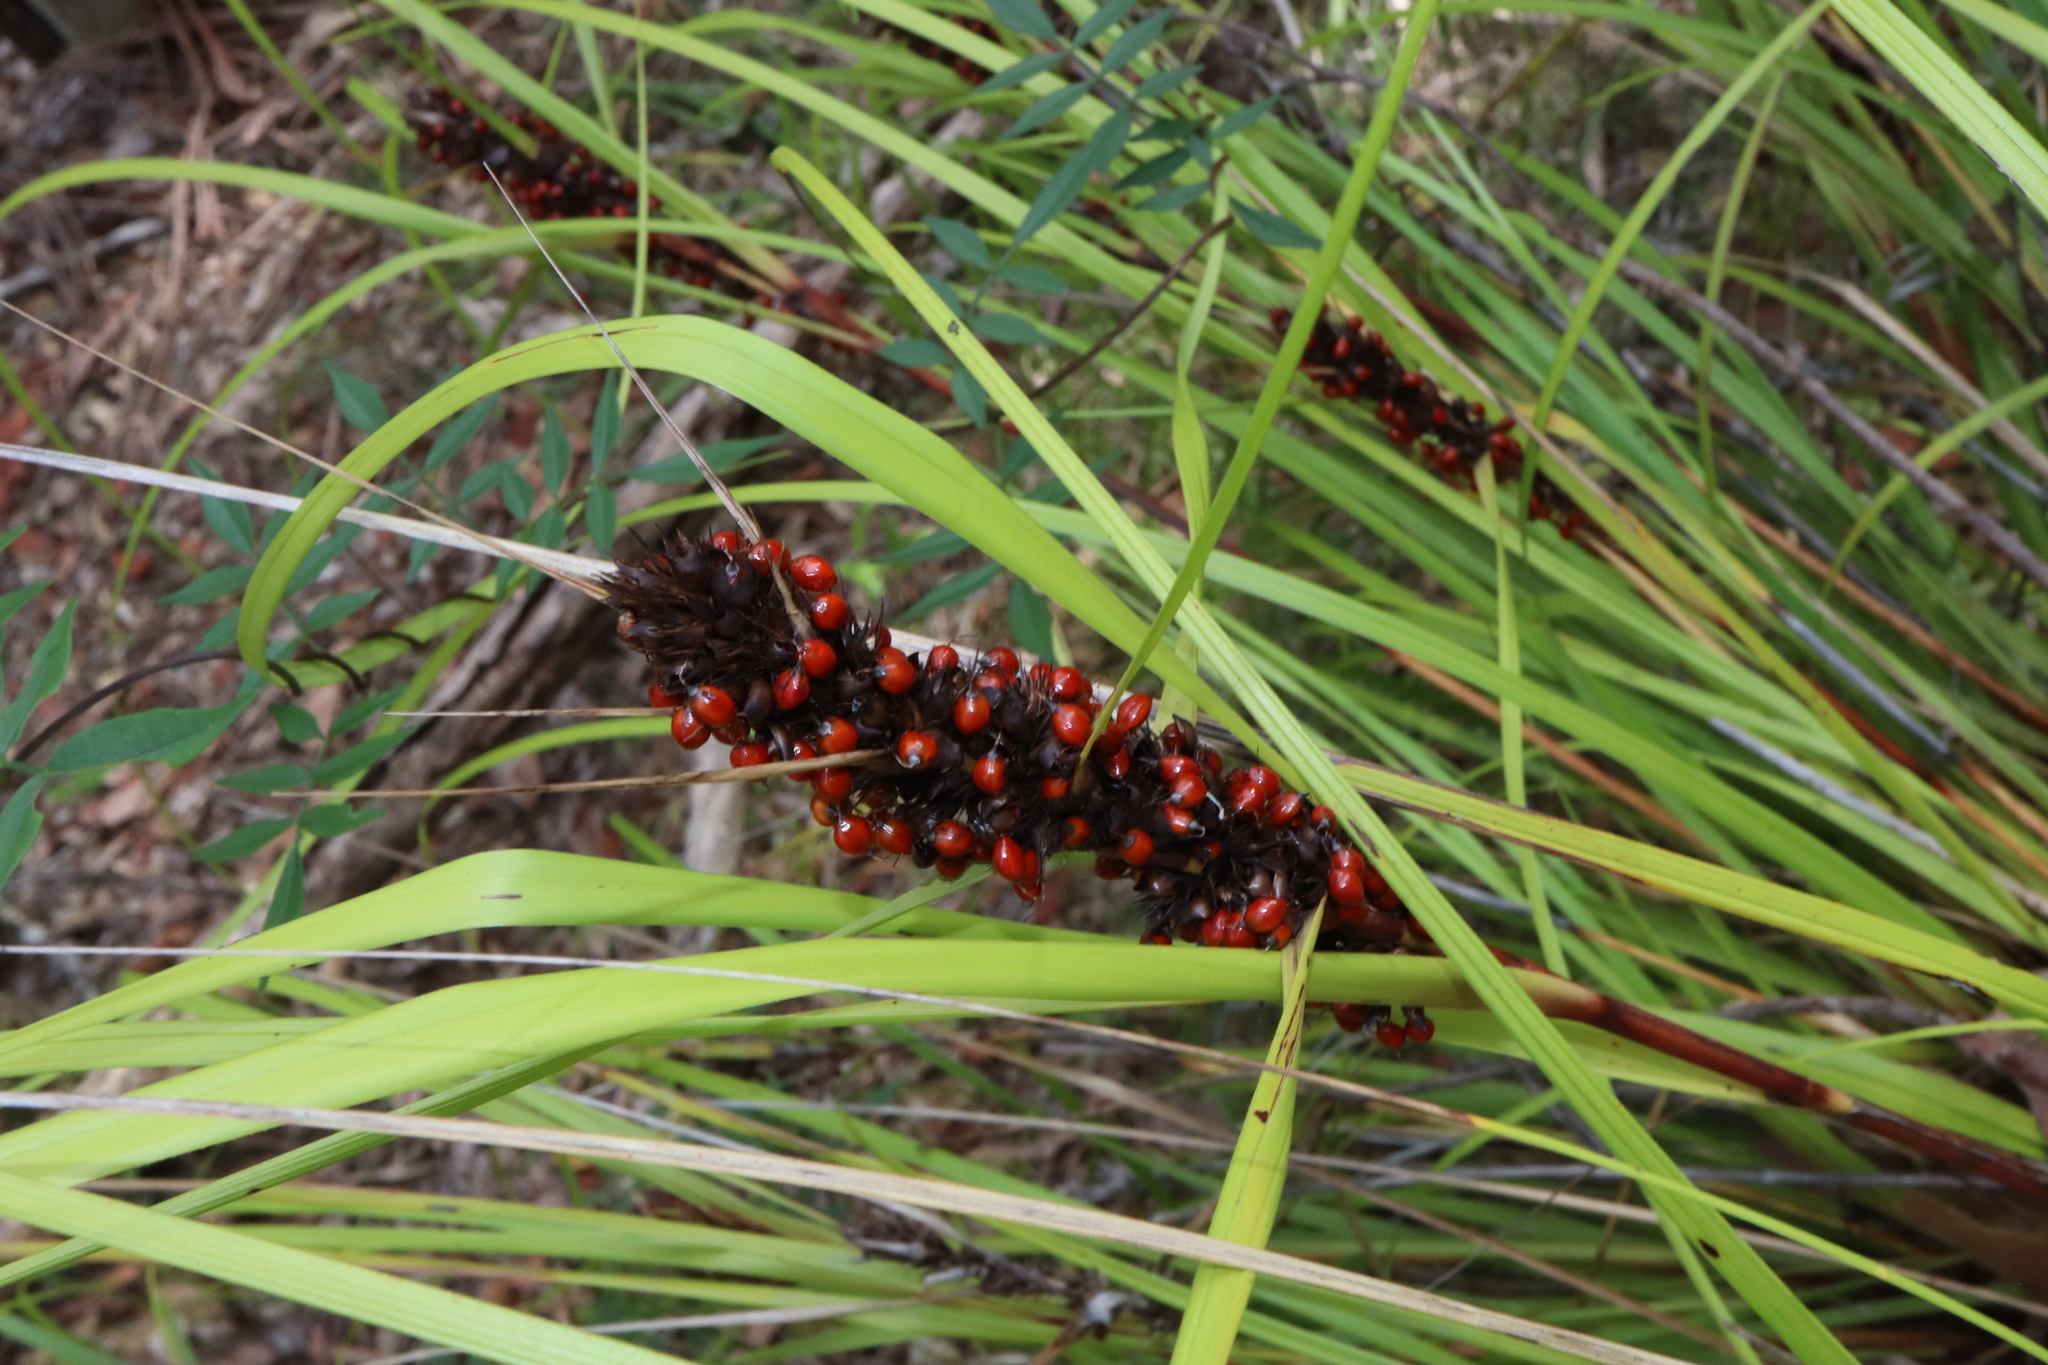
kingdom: Plantae
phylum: Tracheophyta
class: Liliopsida
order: Poales
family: Cyperaceae
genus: Gahnia
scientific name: Gahnia aspera
